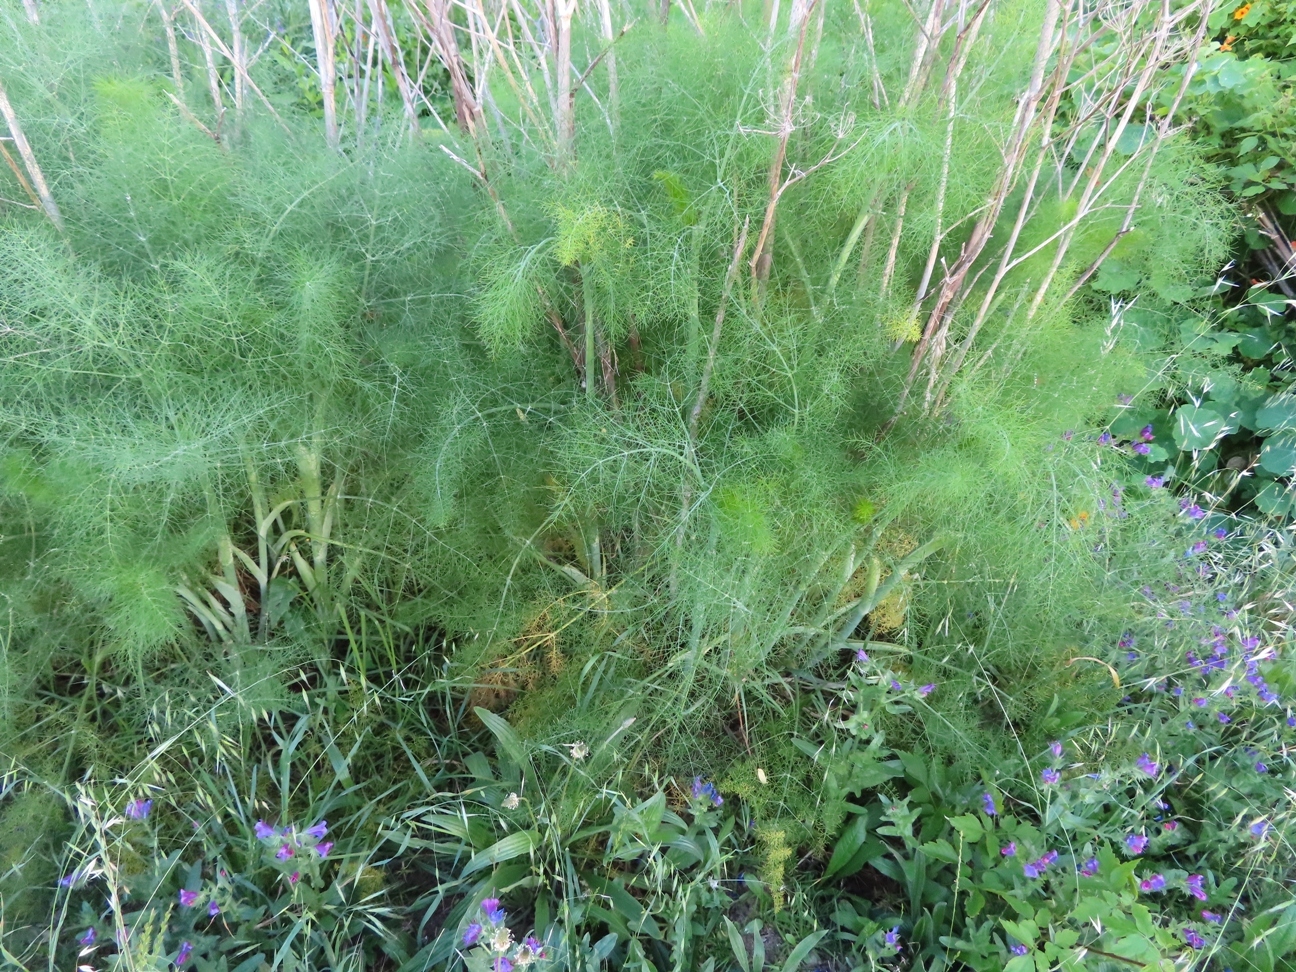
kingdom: Plantae
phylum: Tracheophyta
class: Magnoliopsida
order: Apiales
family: Apiaceae
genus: Foeniculum
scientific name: Foeniculum vulgare
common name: Fennel
